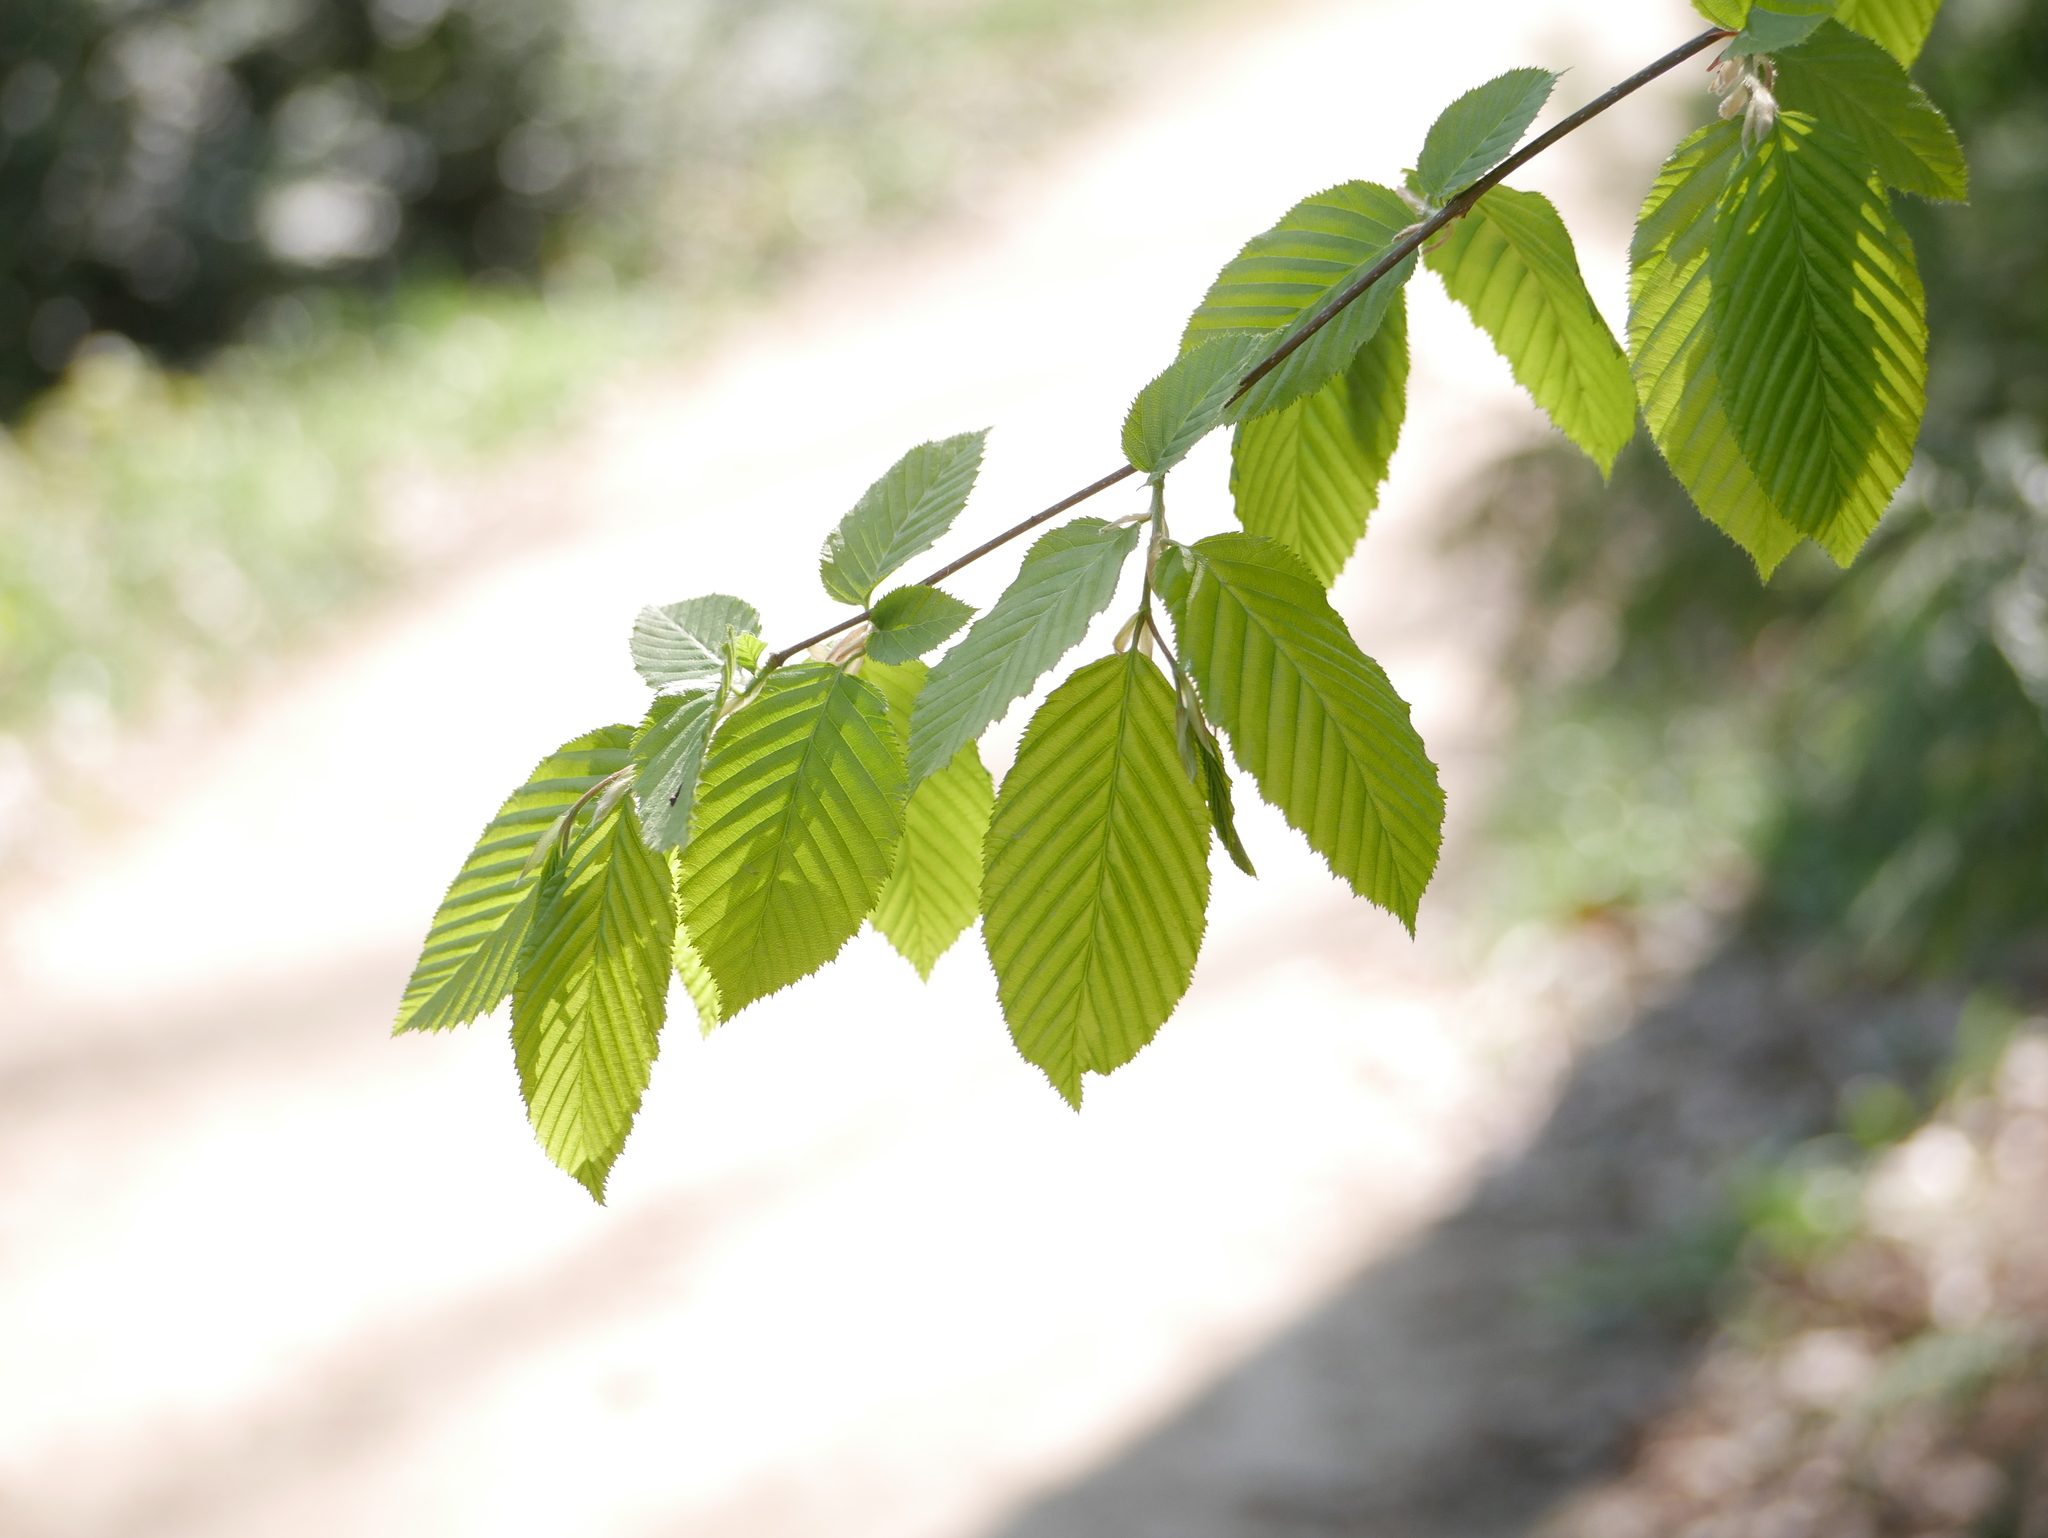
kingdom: Plantae
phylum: Tracheophyta
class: Magnoliopsida
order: Fagales
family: Betulaceae
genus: Carpinus
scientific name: Carpinus betulus
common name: Hornbeam
